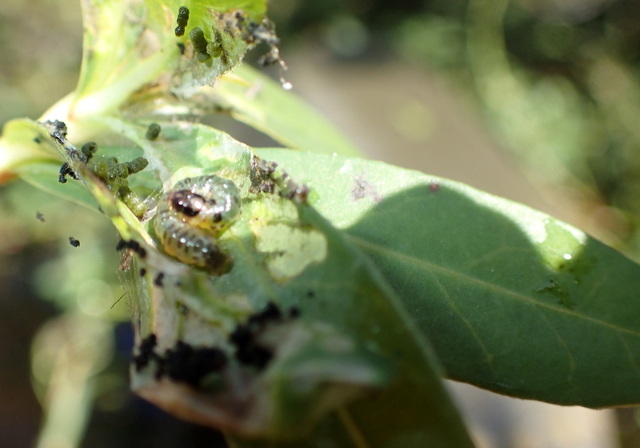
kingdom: Animalia
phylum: Arthropoda
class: Insecta
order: Coleoptera
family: Chrysomelidae
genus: Agasicles
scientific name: Agasicles hygrophila
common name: Alligatorweed flea beetle
